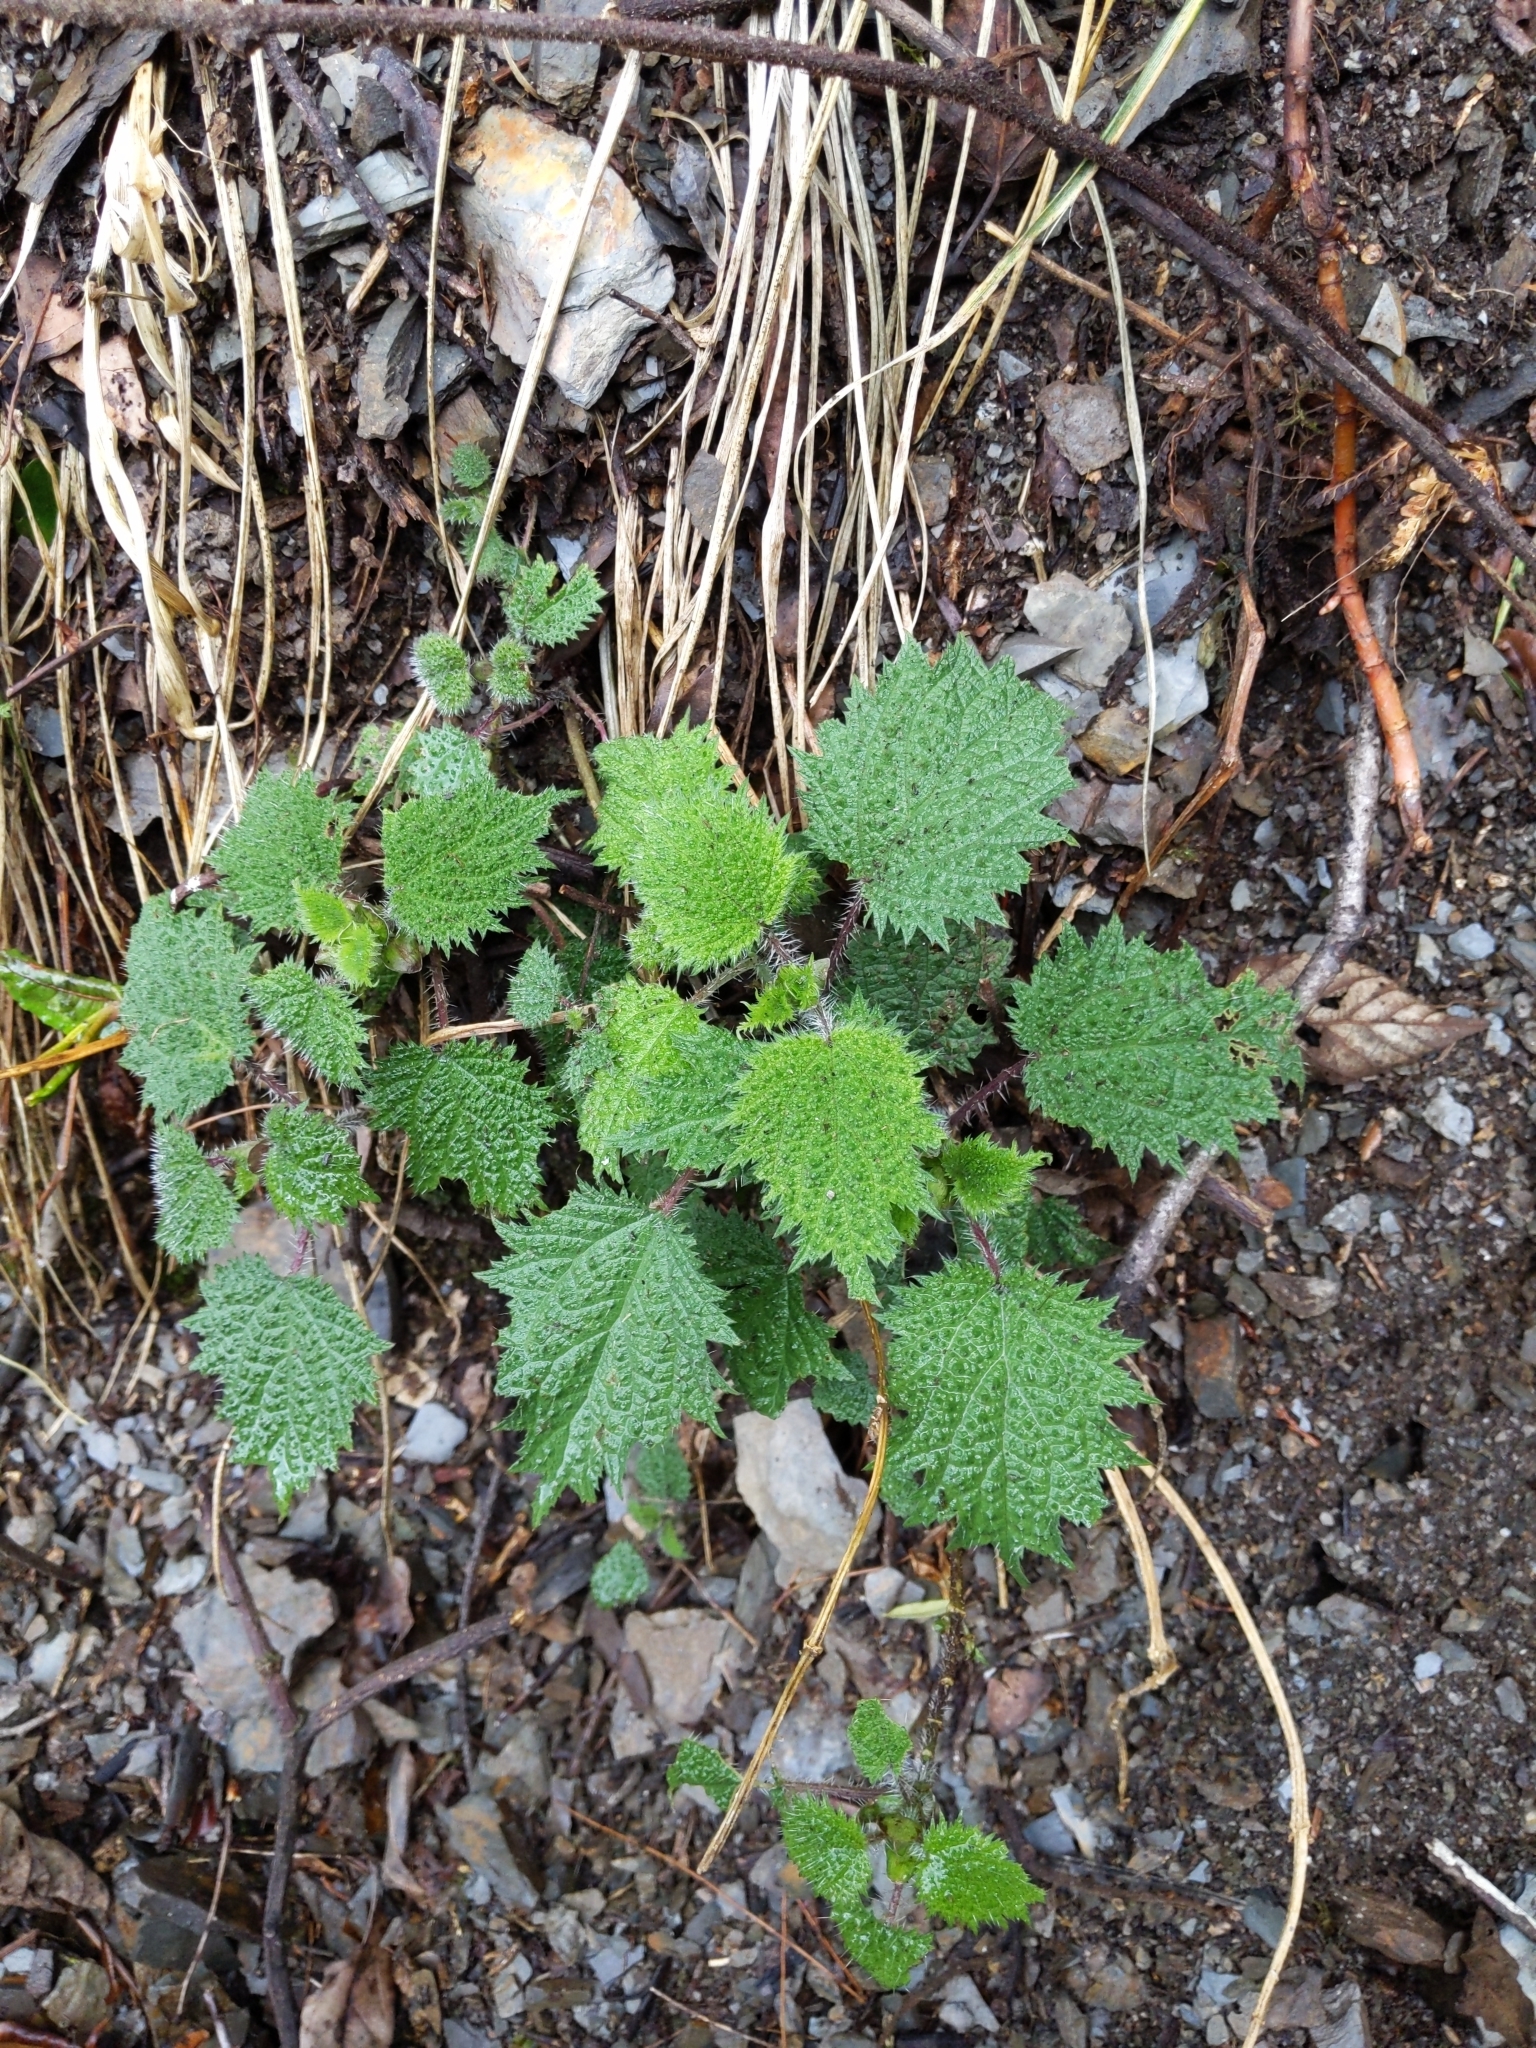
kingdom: Plantae
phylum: Tracheophyta
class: Magnoliopsida
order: Rosales
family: Urticaceae
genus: Urtica
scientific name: Urtica thunbergiana
